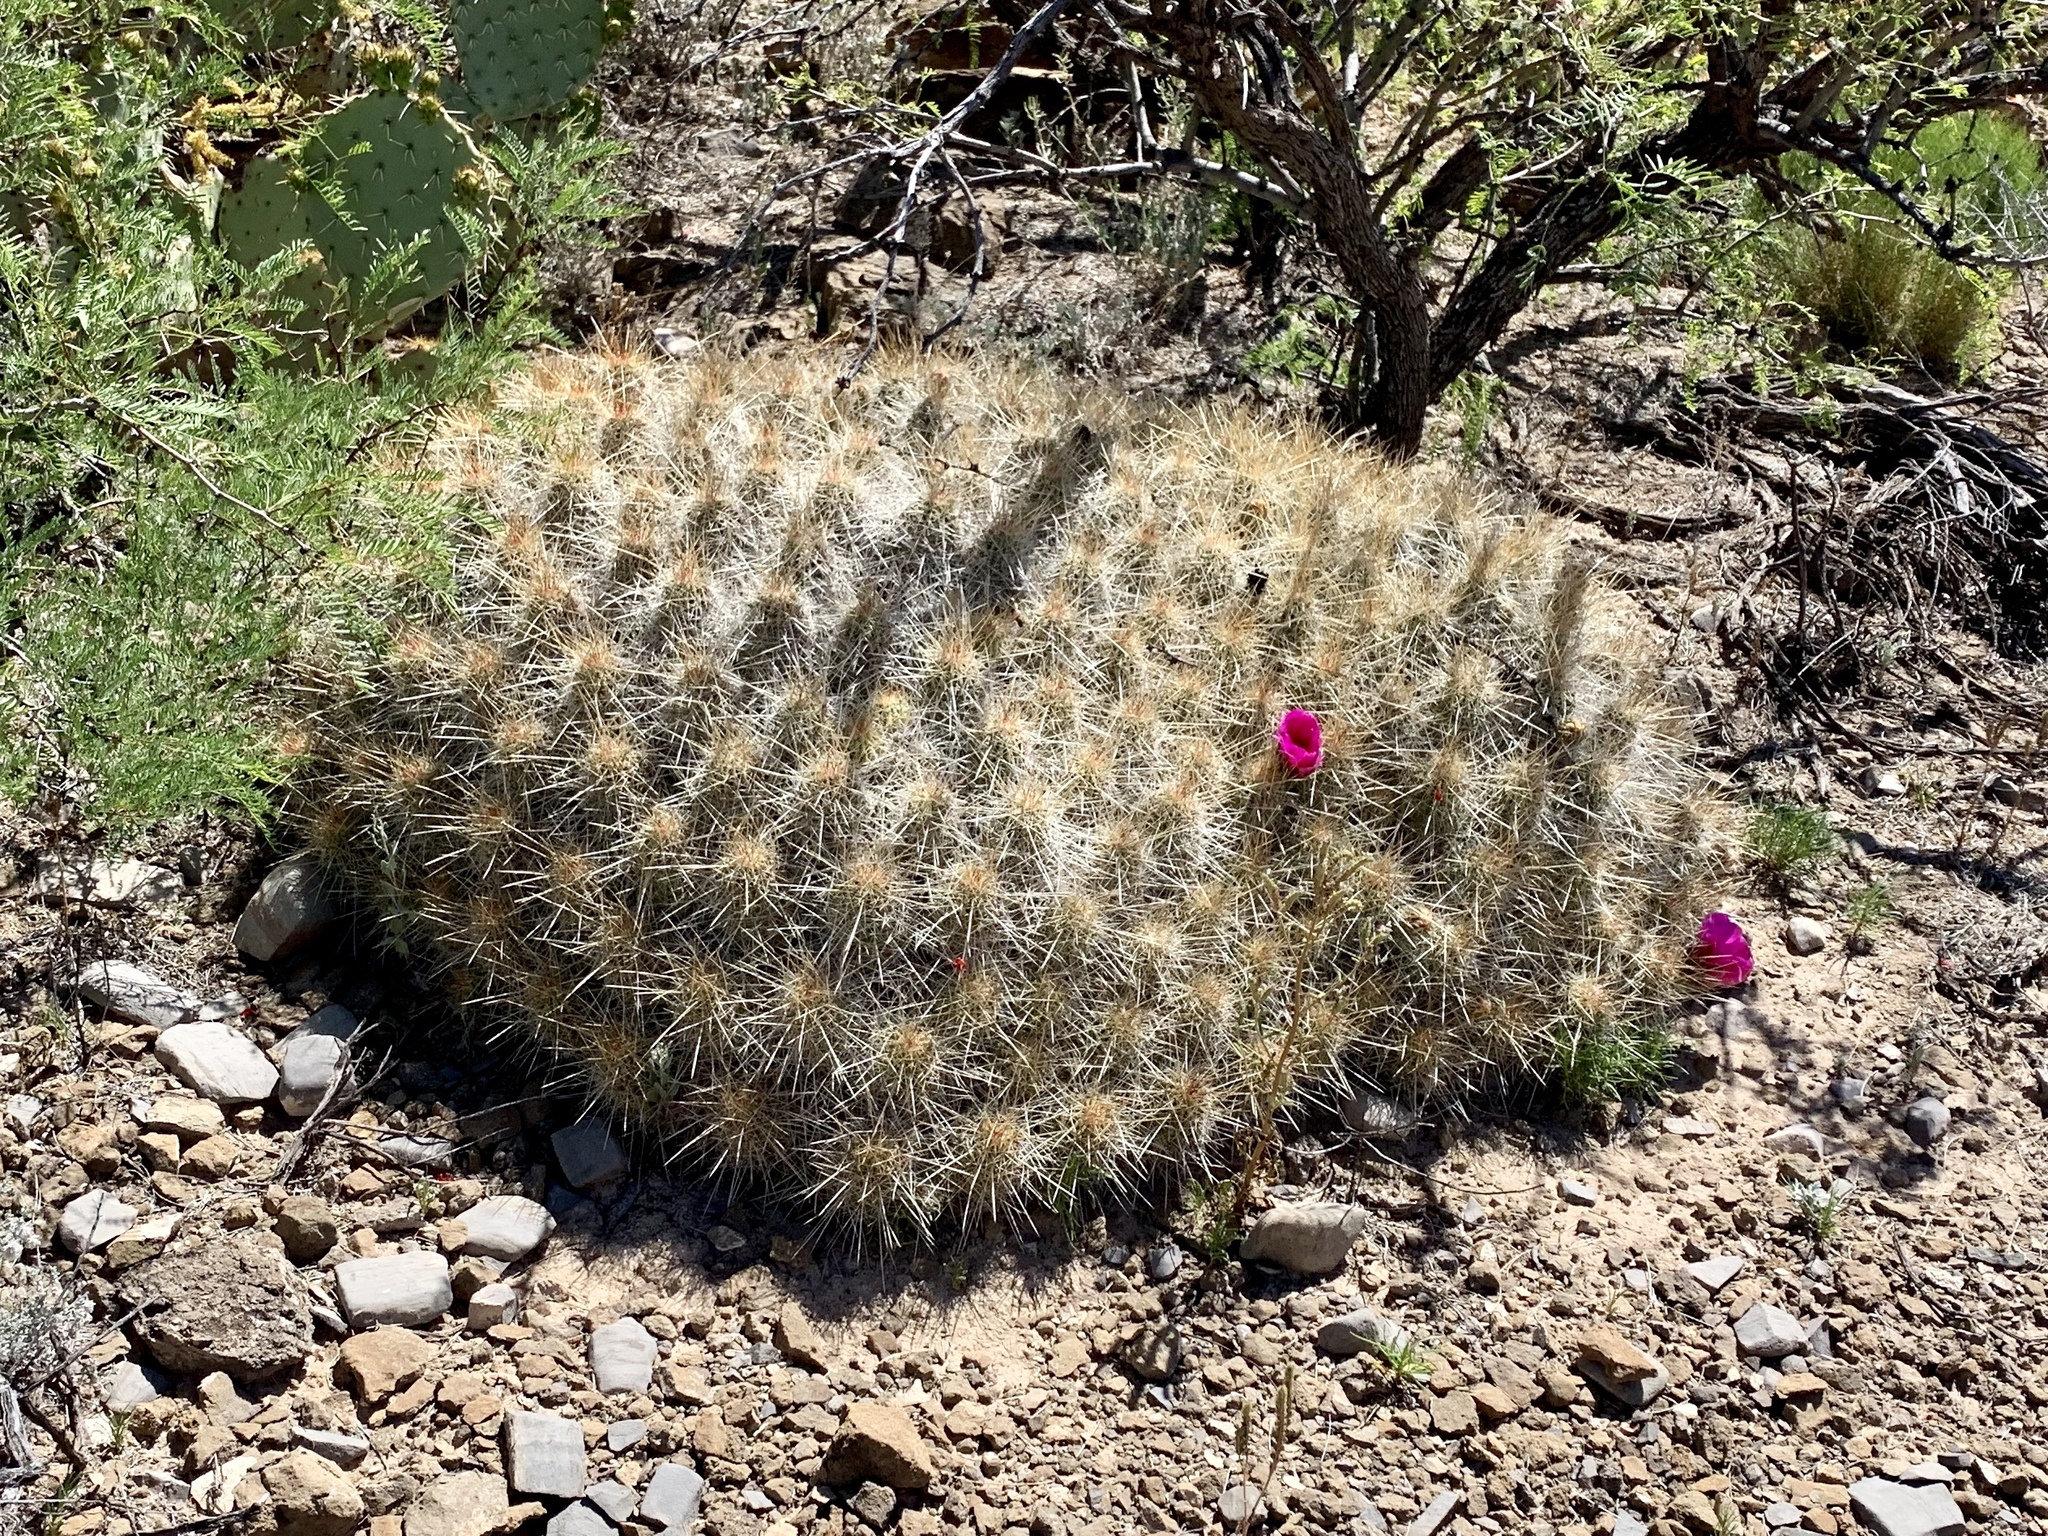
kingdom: Plantae
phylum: Tracheophyta
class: Magnoliopsida
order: Caryophyllales
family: Cactaceae
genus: Echinocereus
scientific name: Echinocereus stramineus
